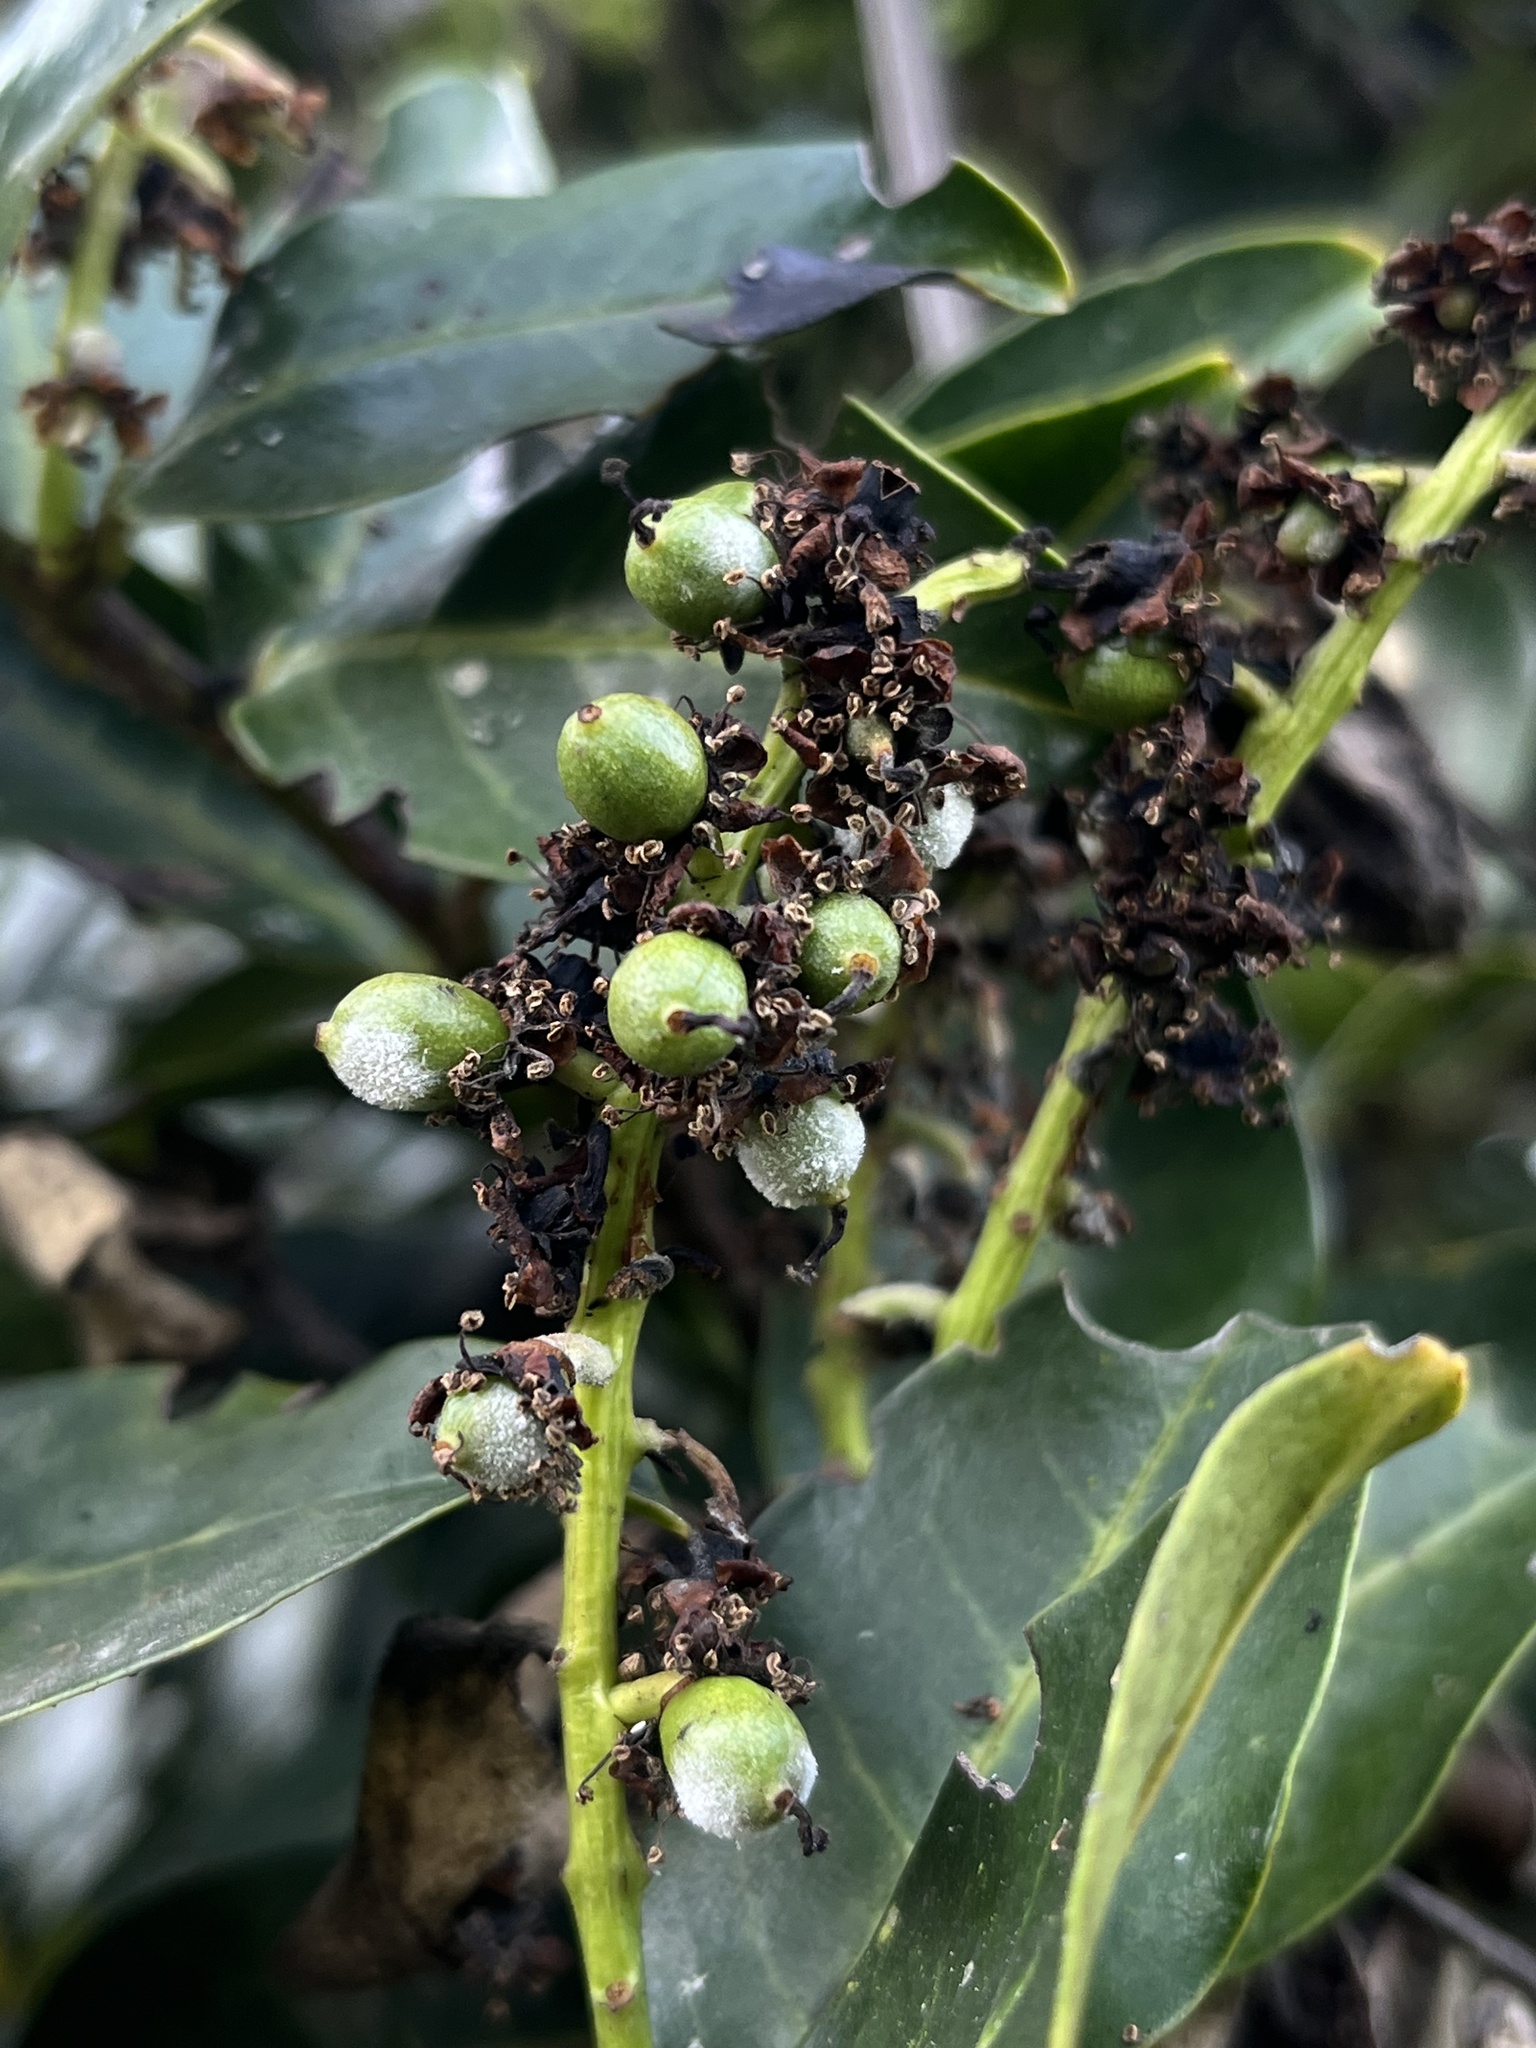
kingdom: Plantae
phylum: Tracheophyta
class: Magnoliopsida
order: Rosales
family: Rosaceae
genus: Prunus
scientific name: Prunus buxifolia
